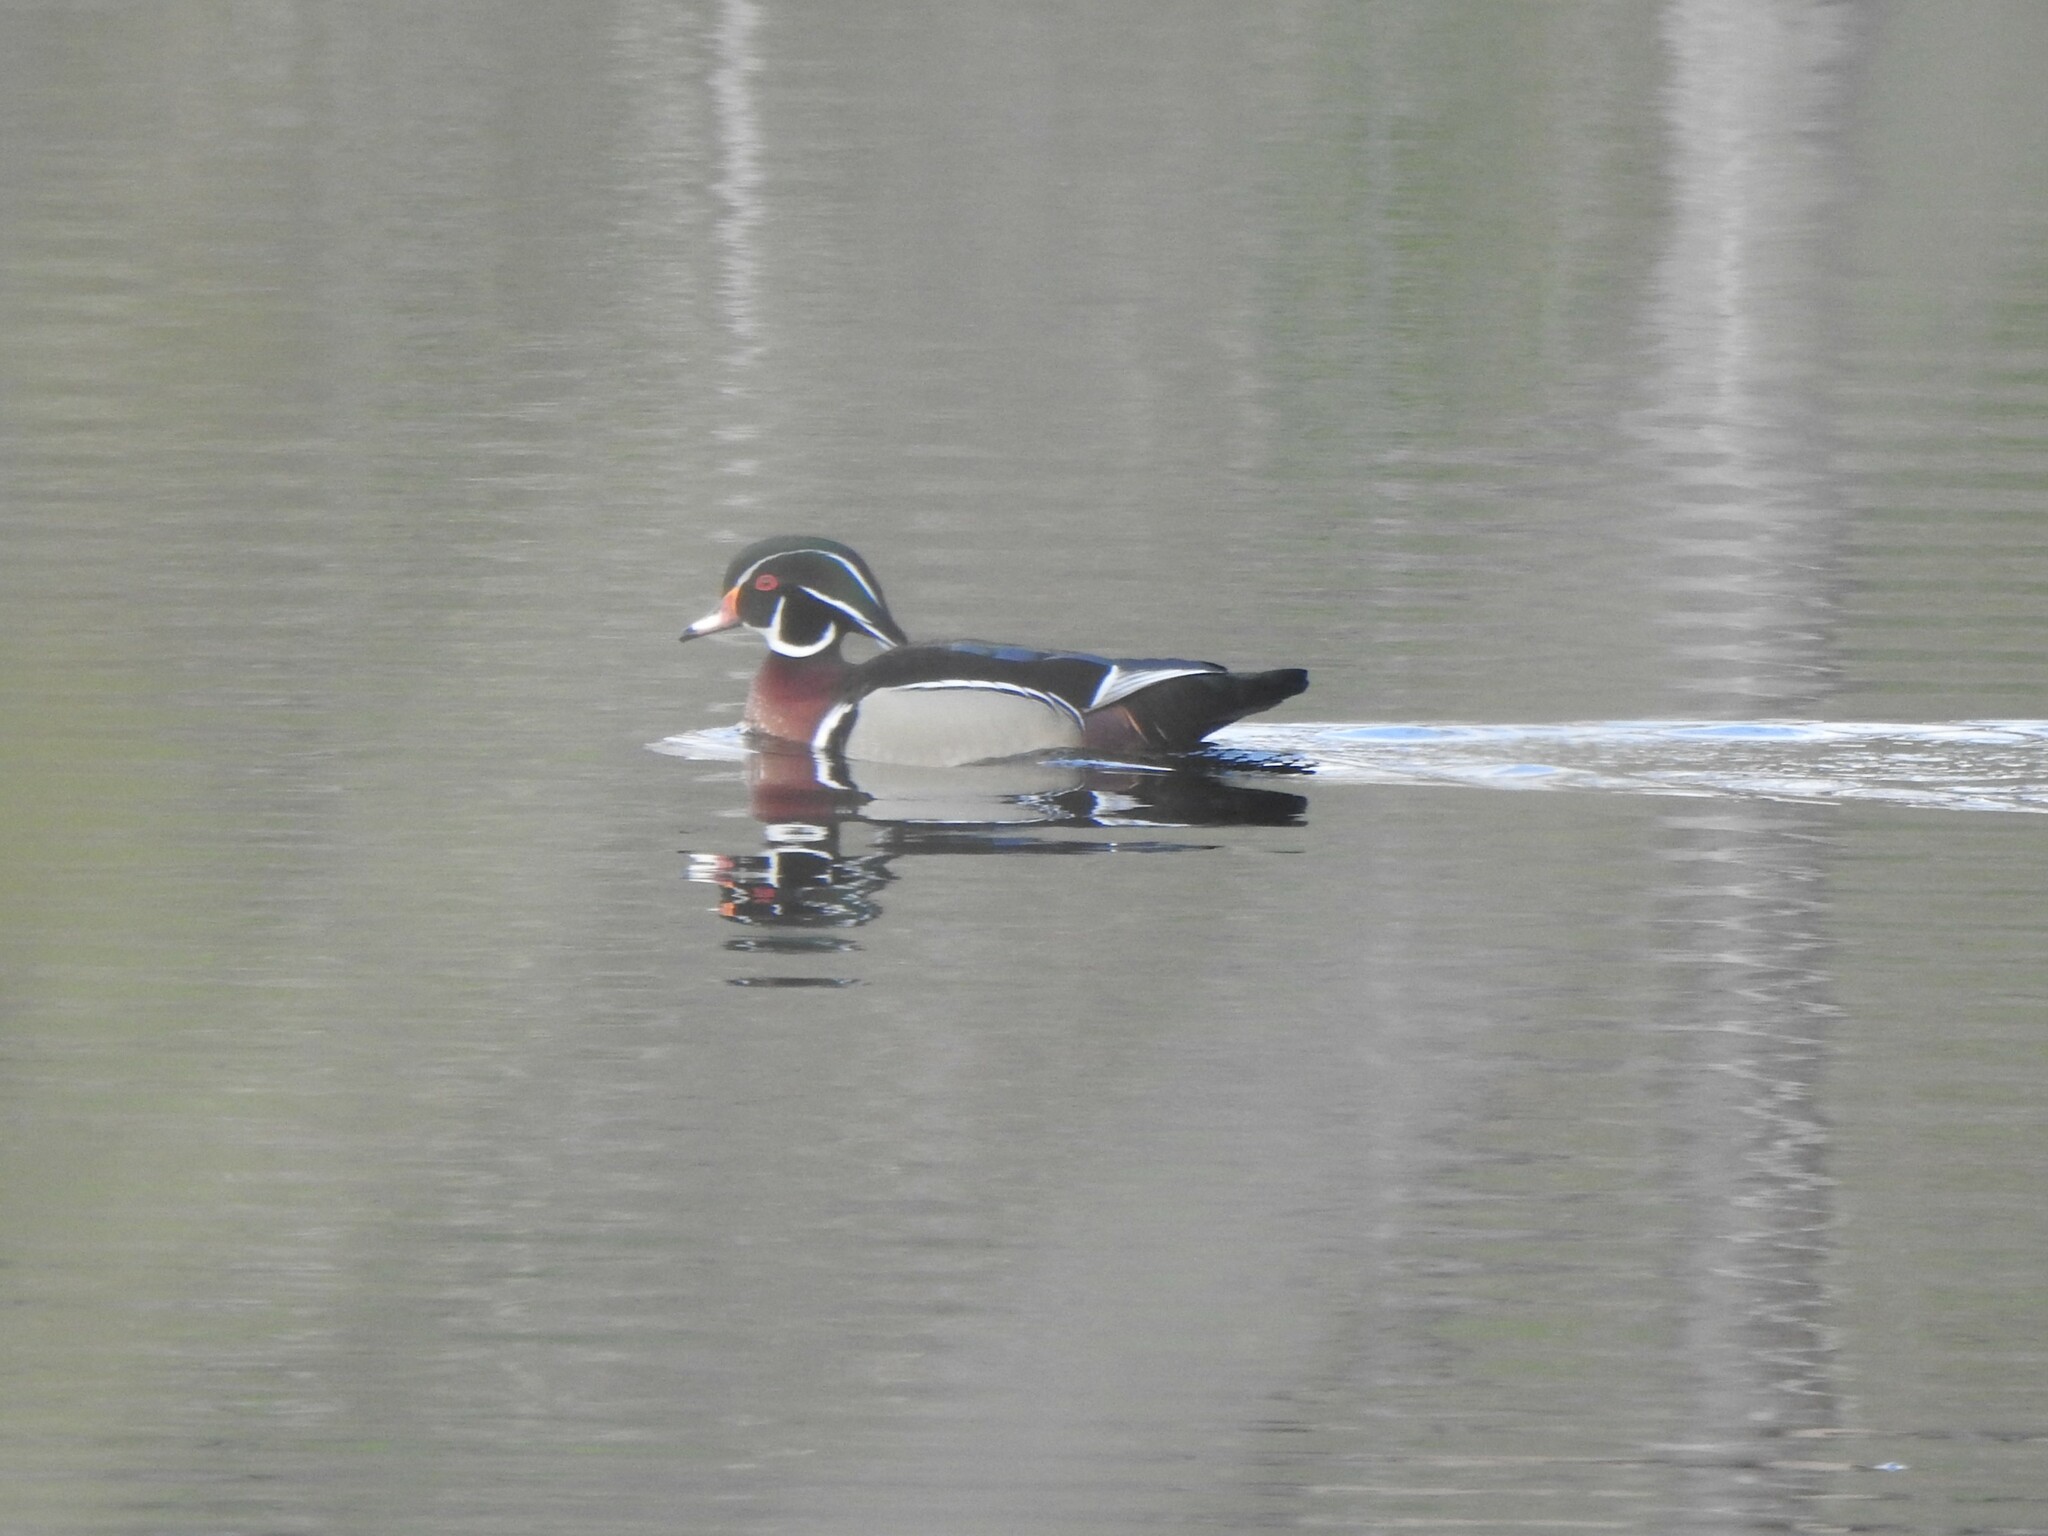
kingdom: Animalia
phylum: Chordata
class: Aves
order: Anseriformes
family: Anatidae
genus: Aix
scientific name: Aix sponsa
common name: Wood duck
